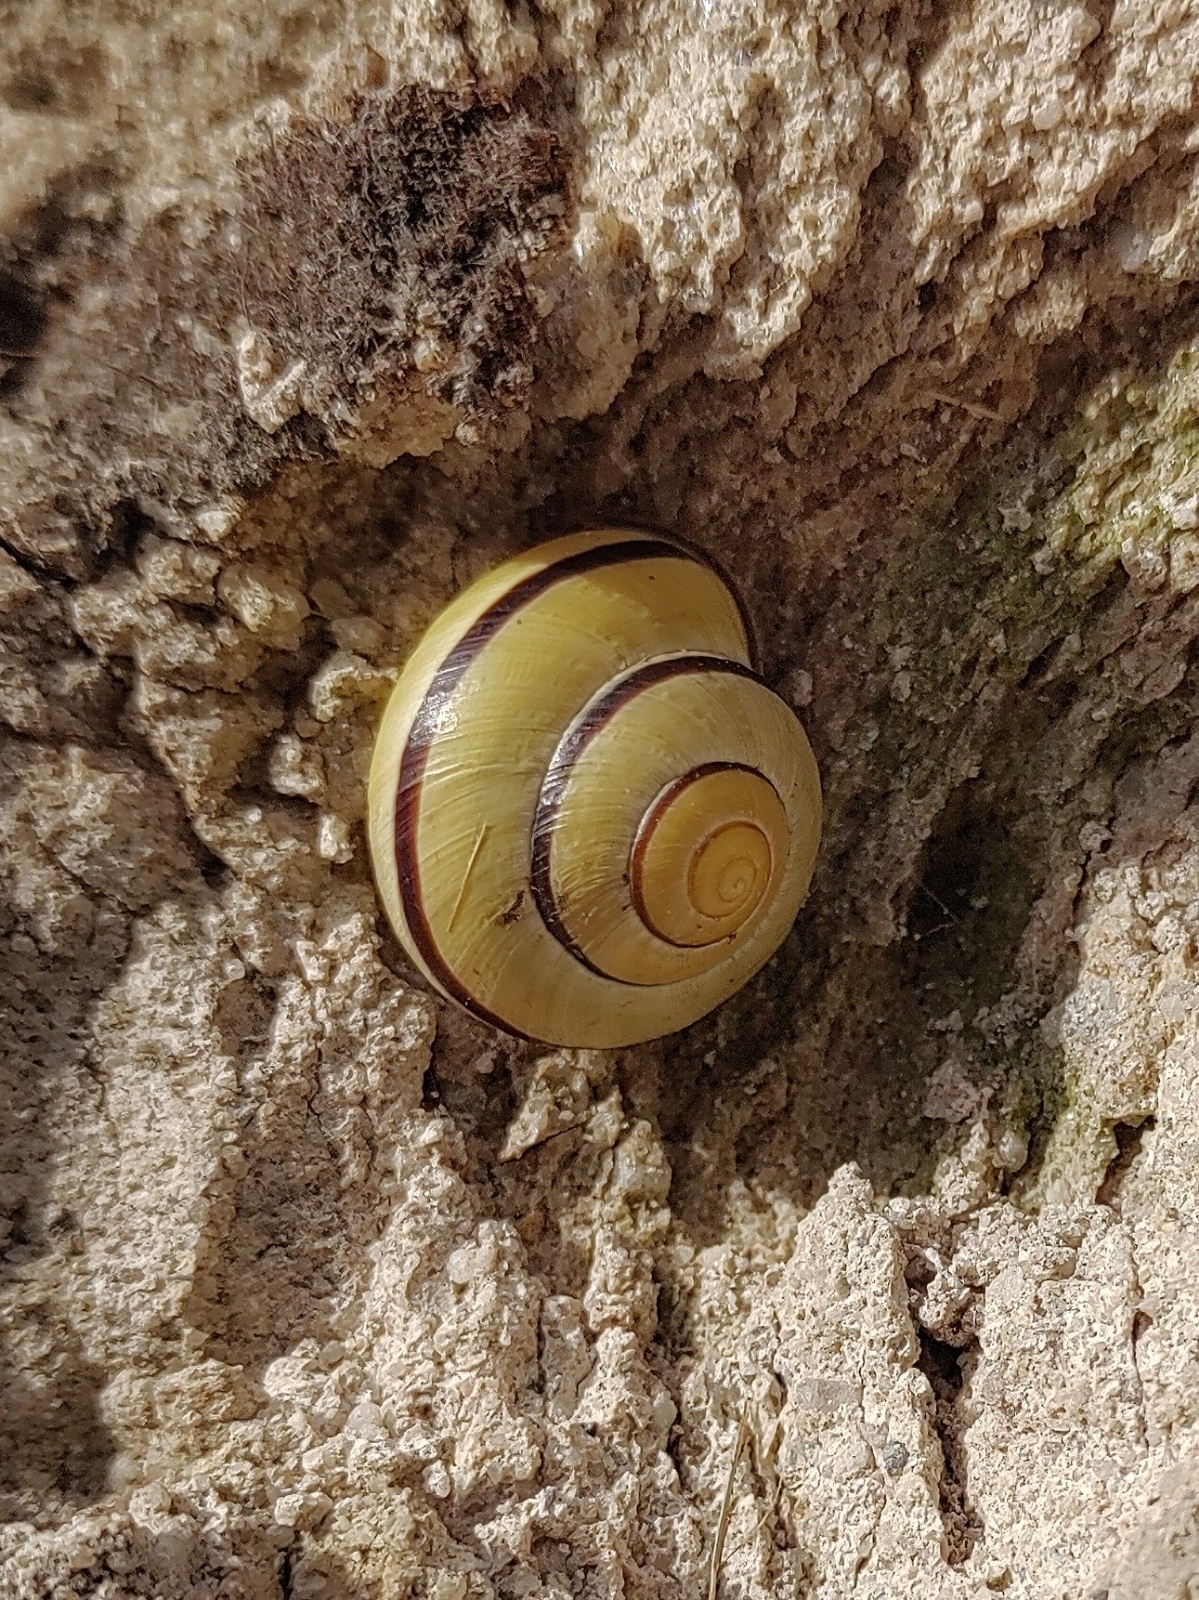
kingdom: Animalia
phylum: Mollusca
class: Gastropoda
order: Stylommatophora
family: Helicidae
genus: Cepaea
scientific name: Cepaea nemoralis
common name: Grovesnail
